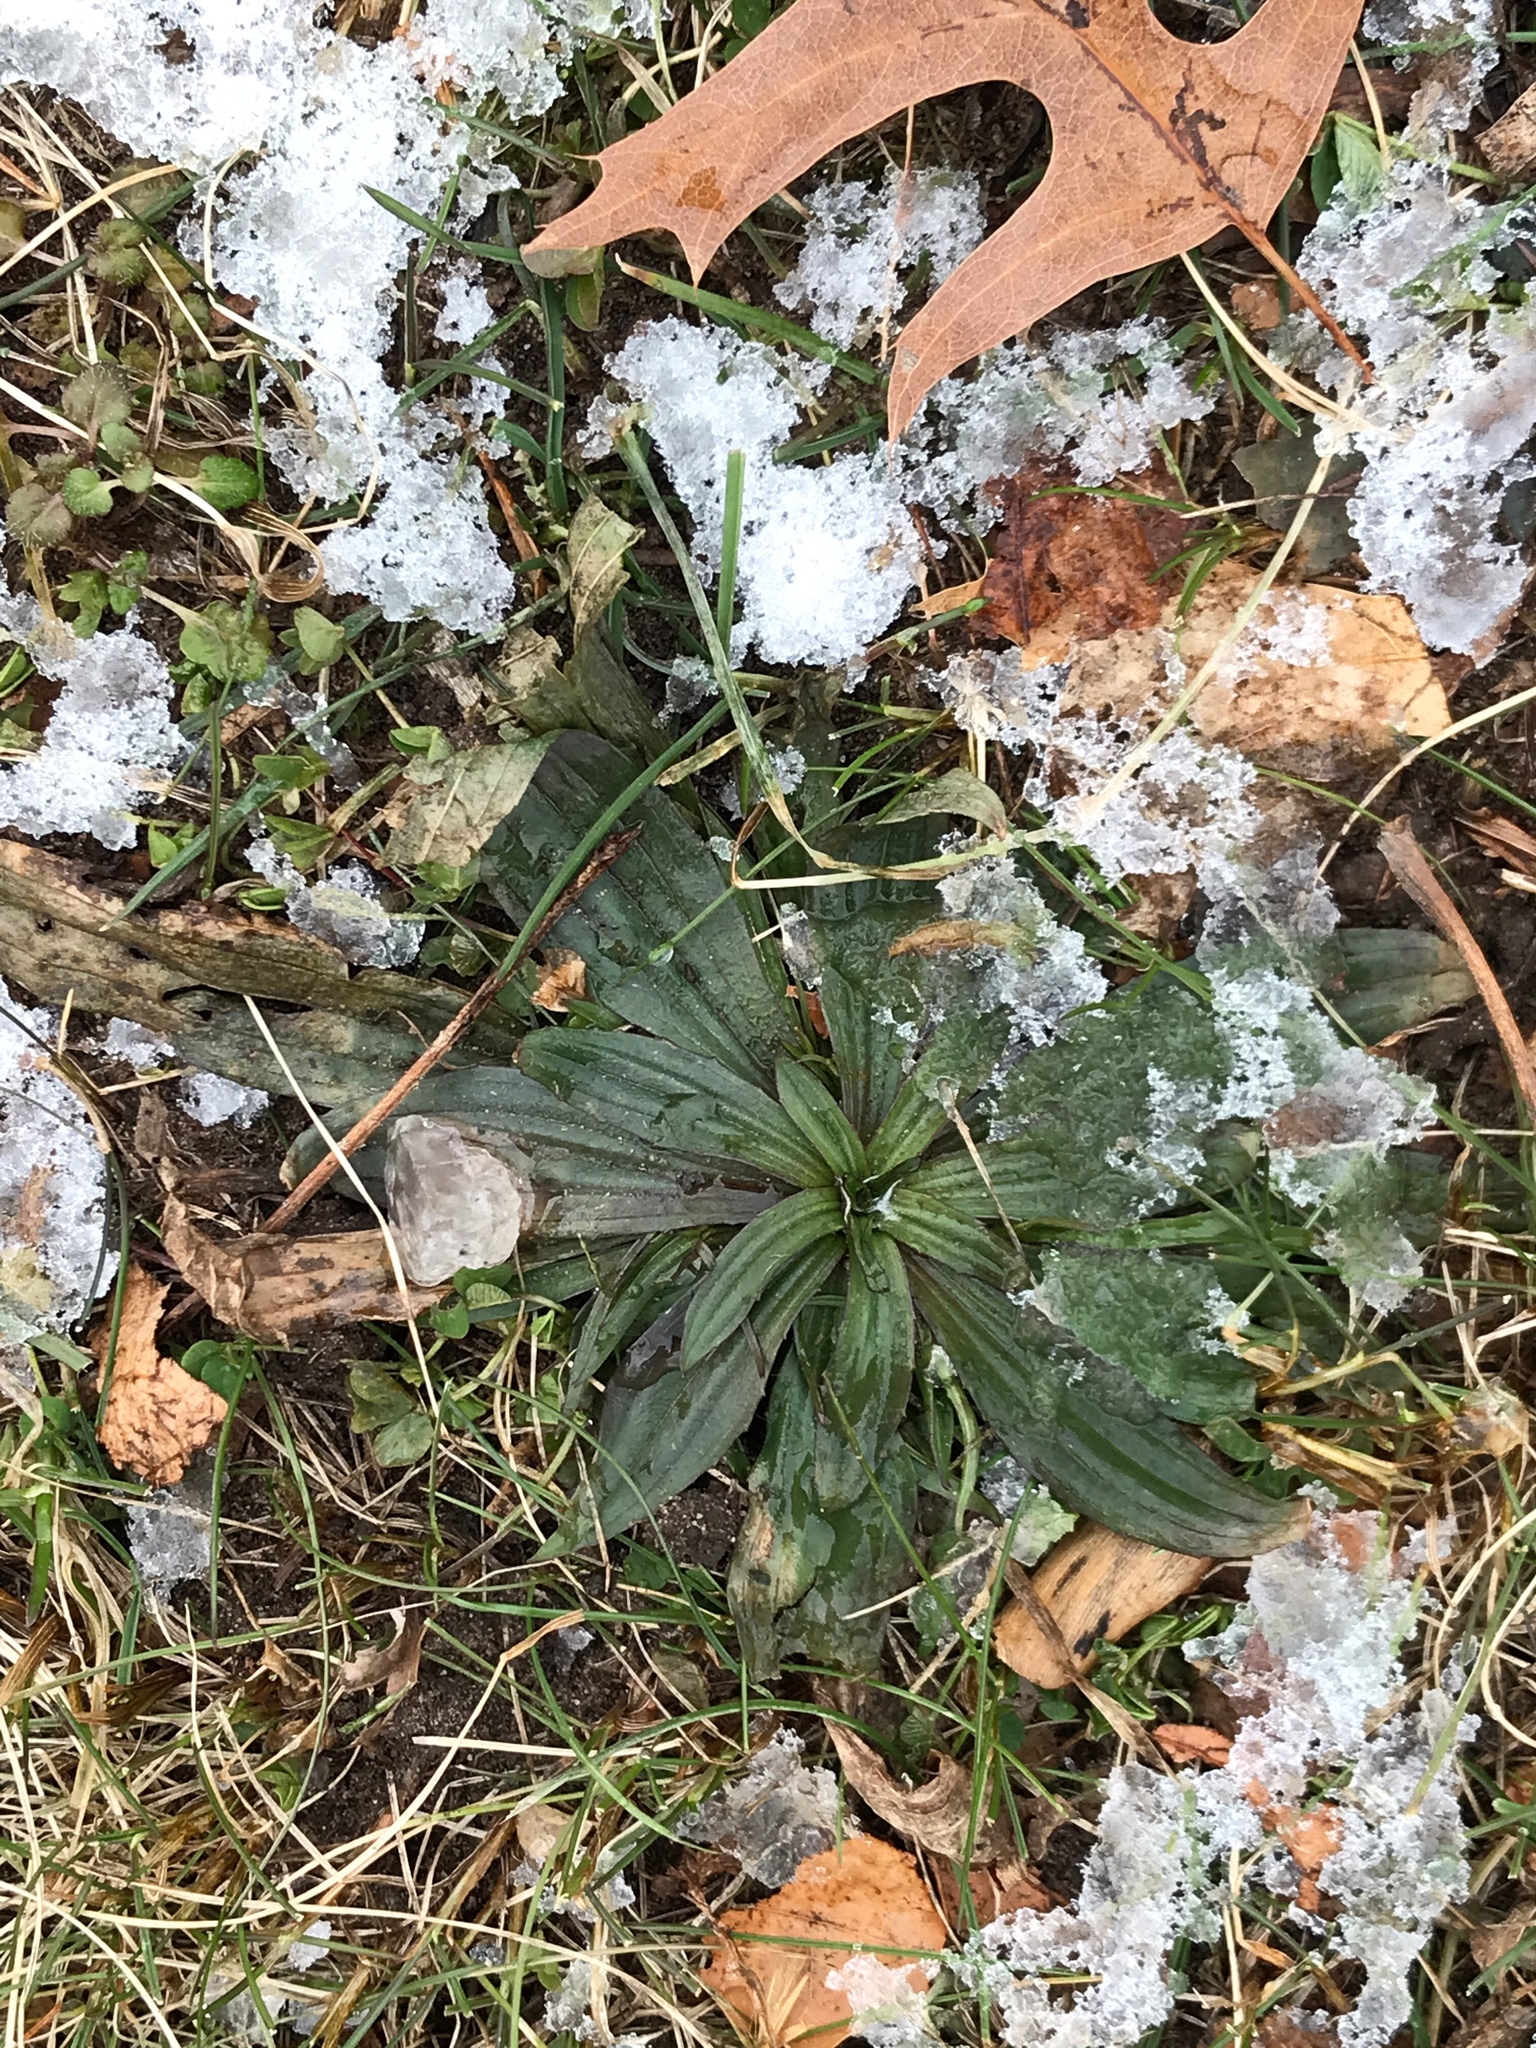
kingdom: Plantae
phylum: Tracheophyta
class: Magnoliopsida
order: Lamiales
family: Plantaginaceae
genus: Plantago
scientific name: Plantago lanceolata
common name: Ribwort plantain
